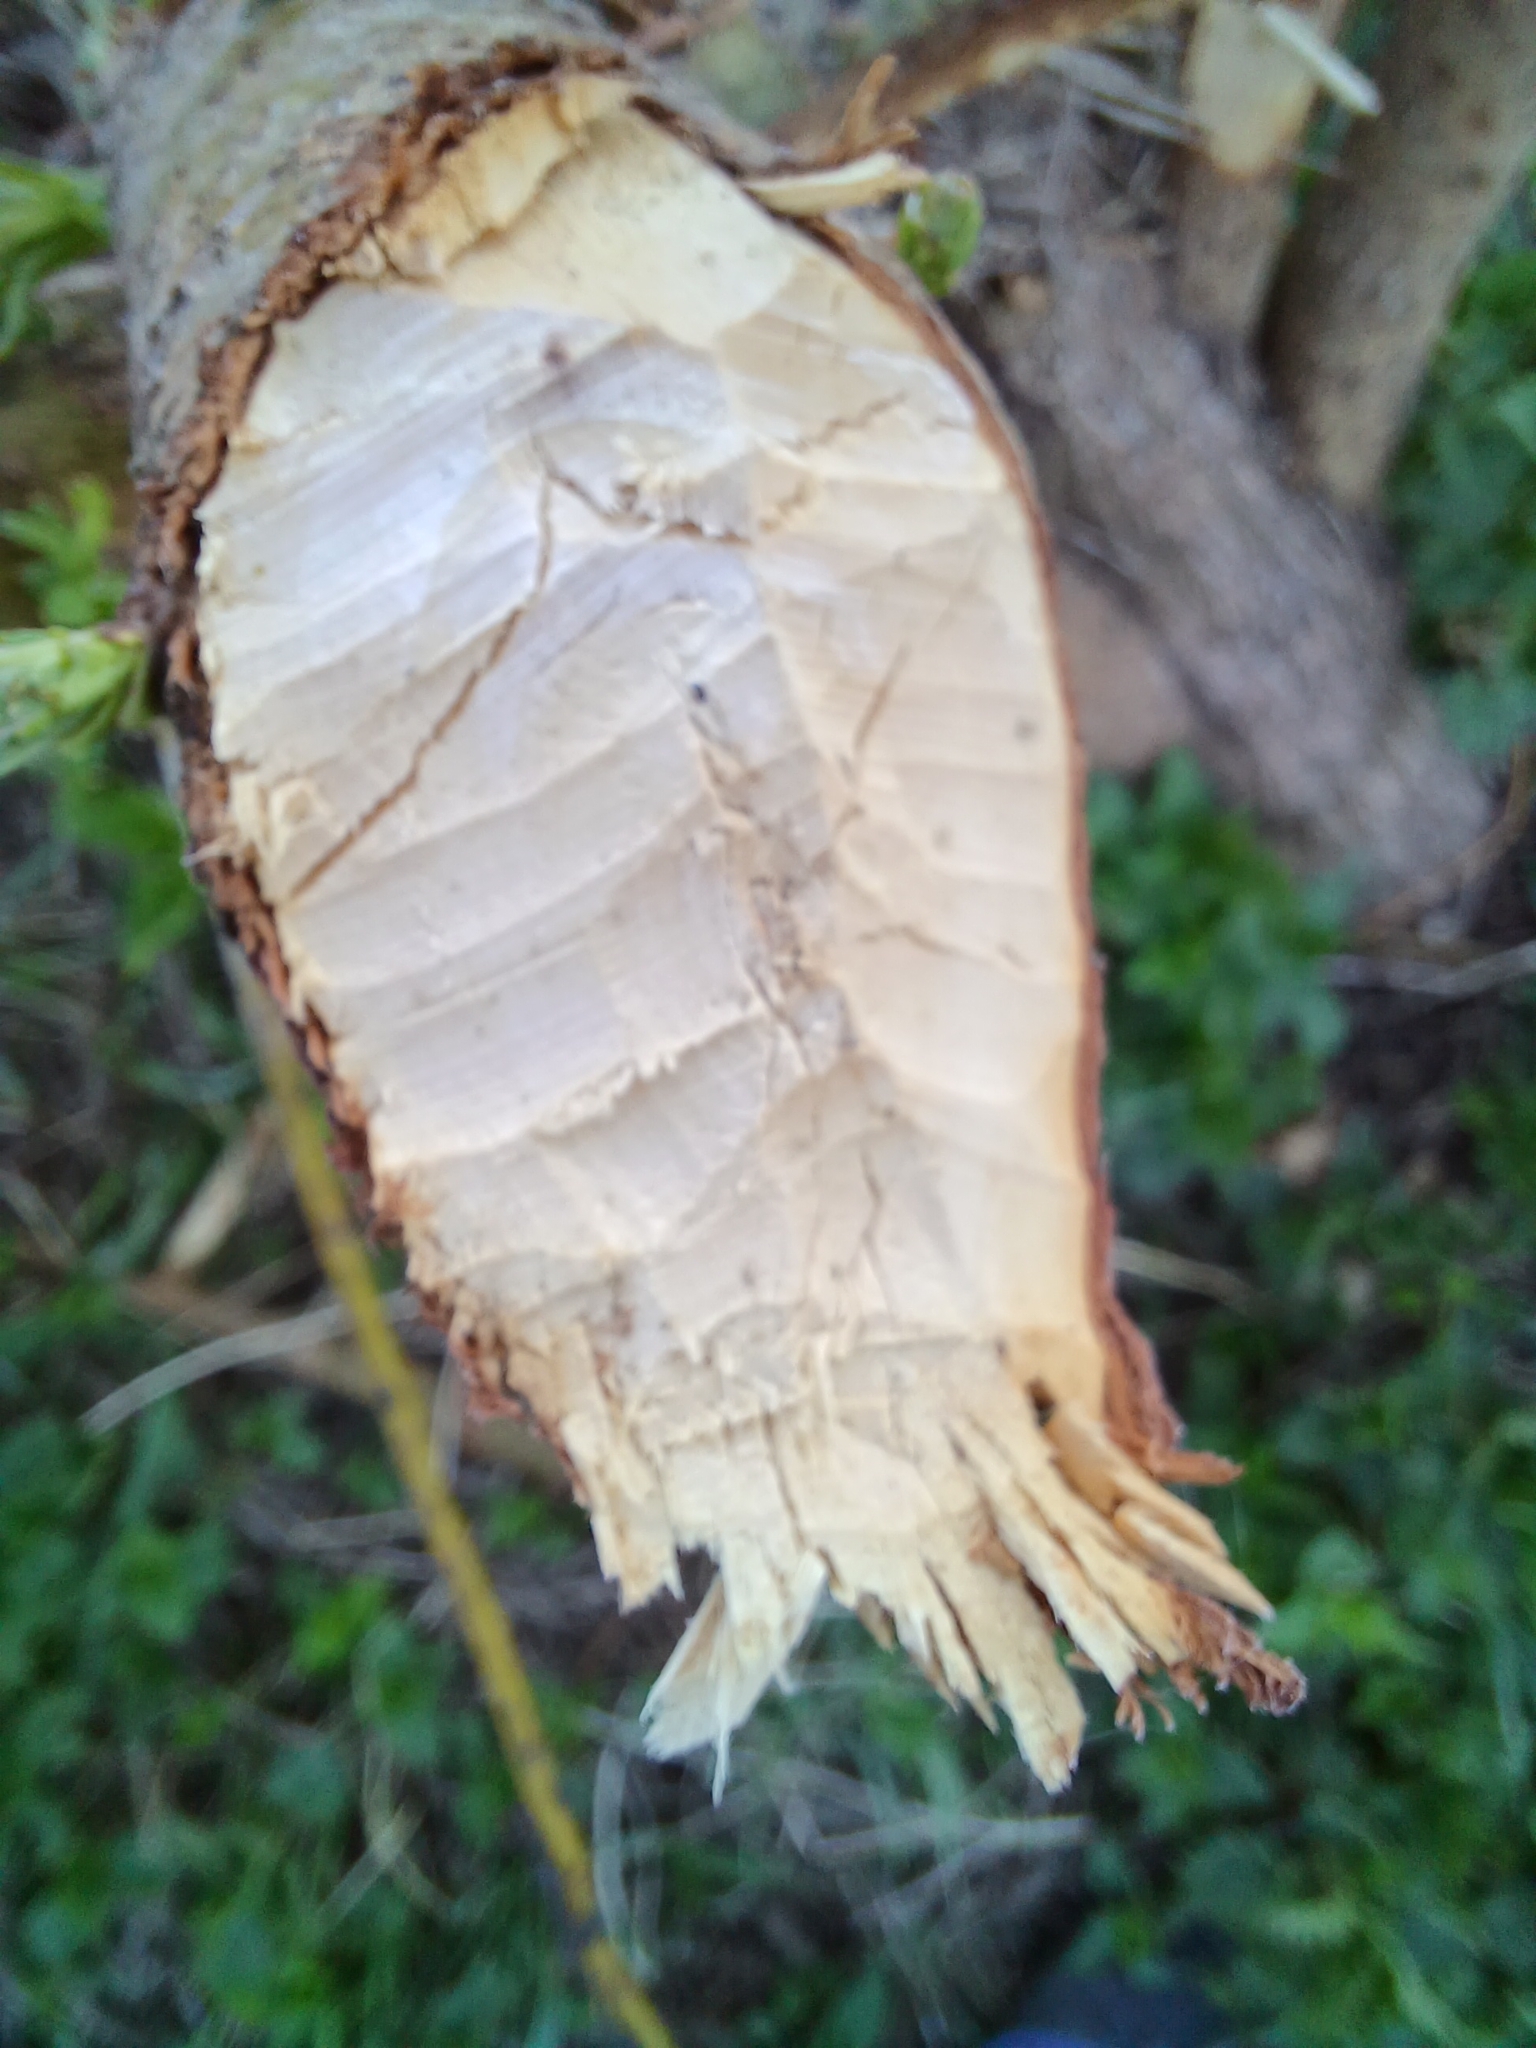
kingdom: Animalia
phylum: Chordata
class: Mammalia
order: Rodentia
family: Castoridae
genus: Castor
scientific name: Castor fiber
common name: Eurasian beaver
